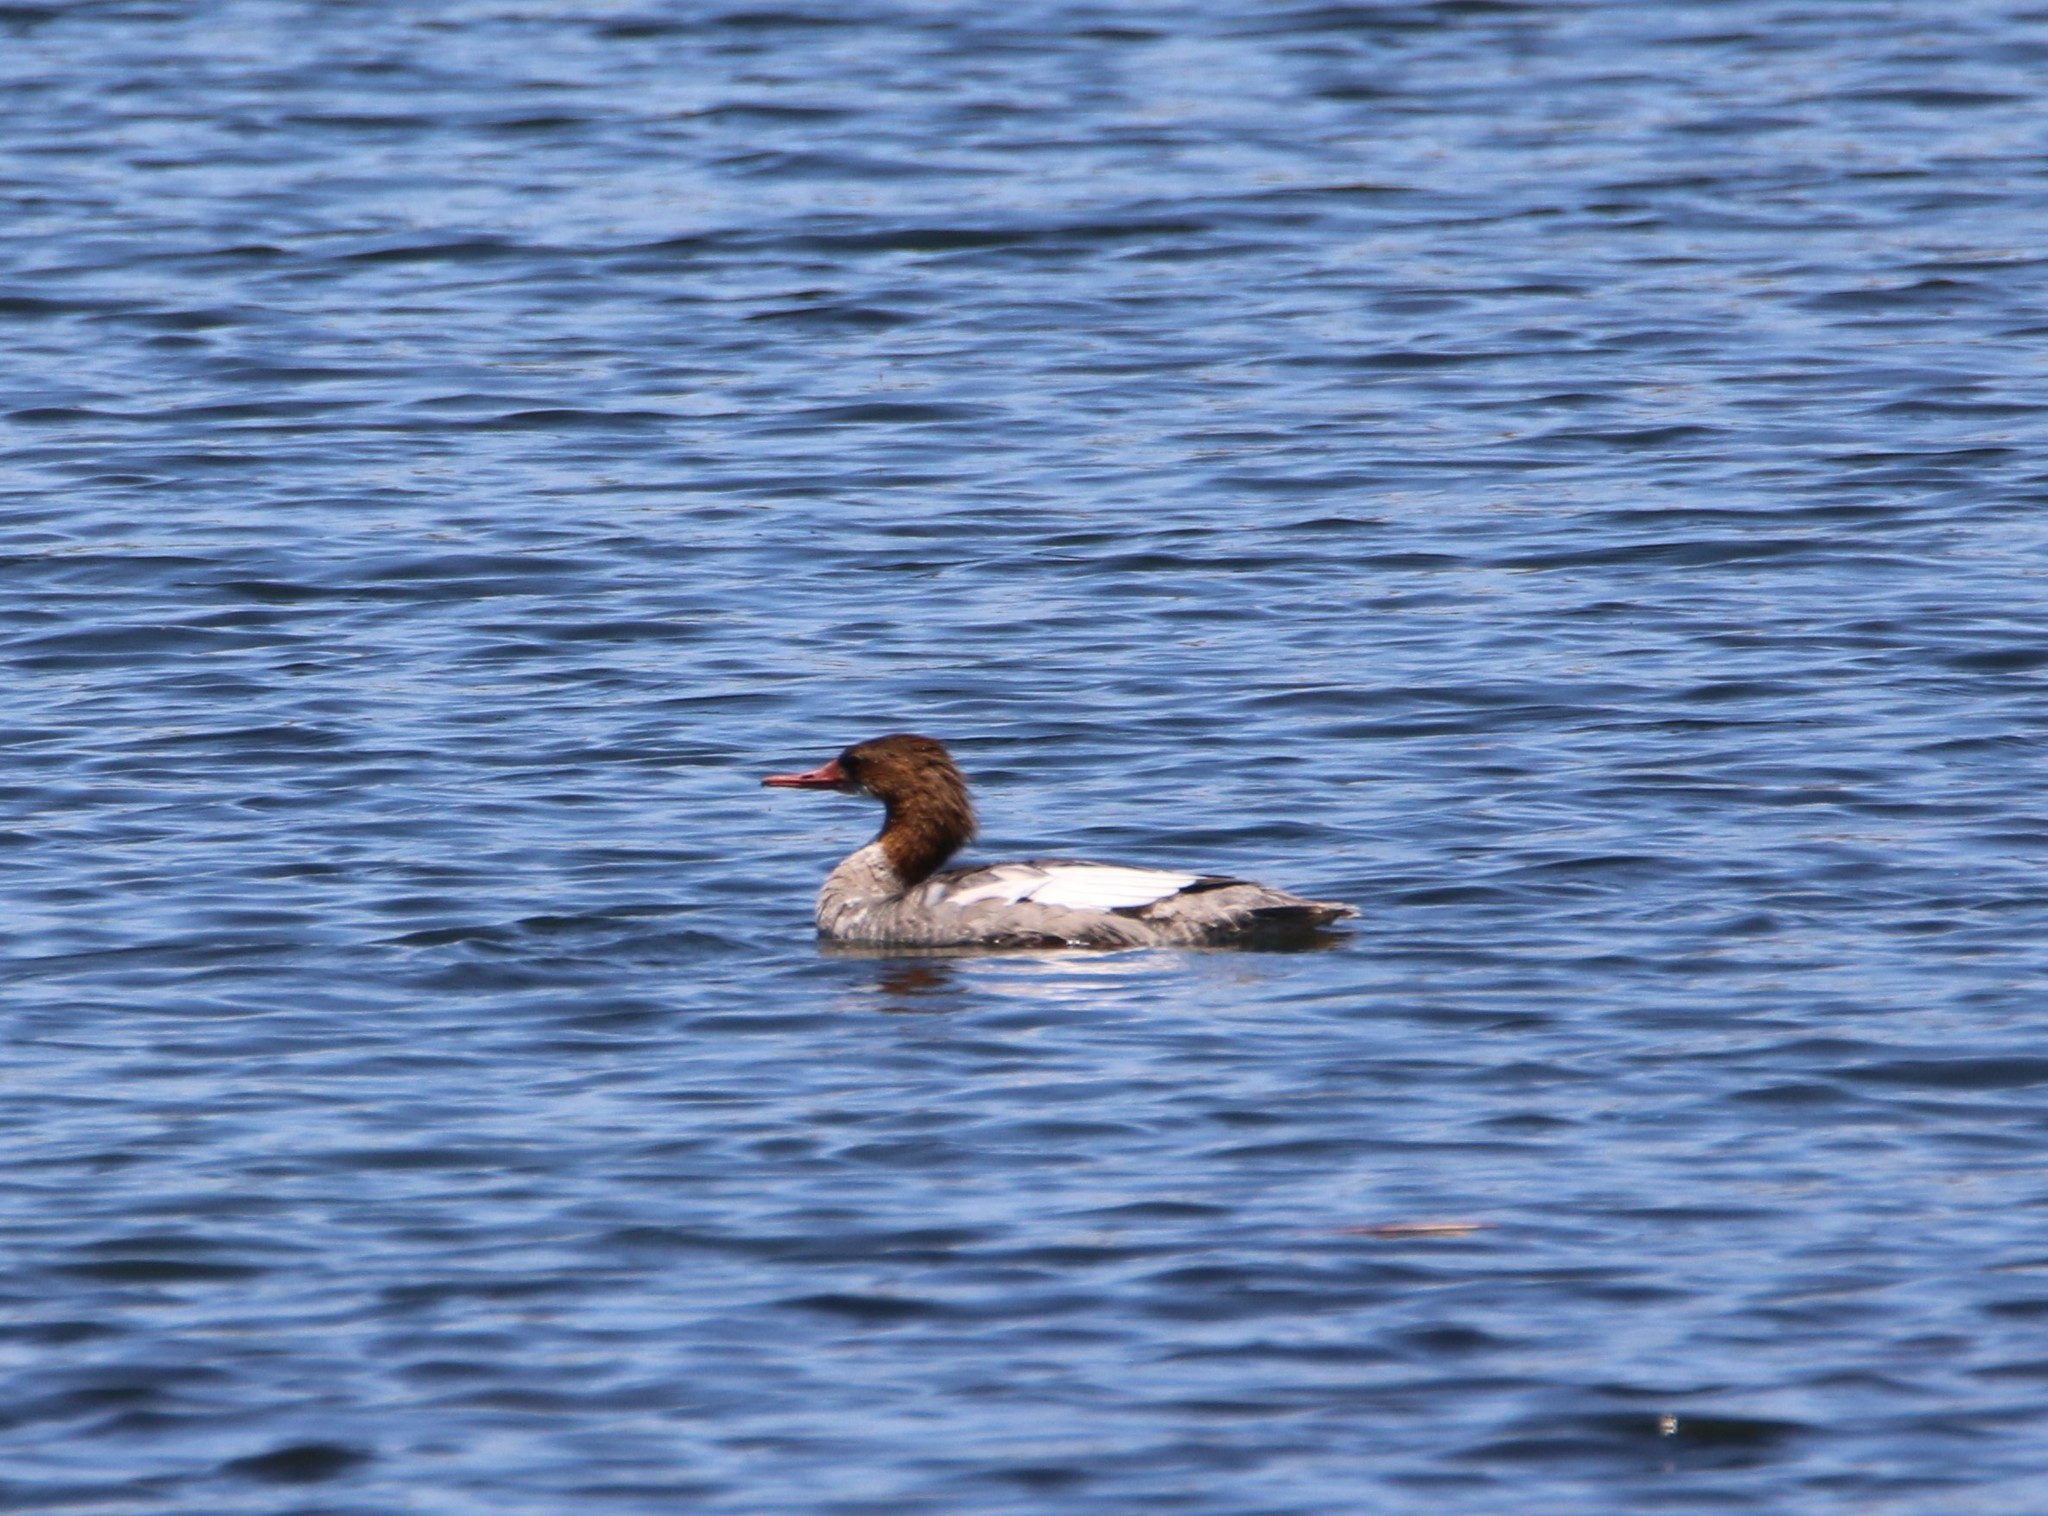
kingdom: Animalia
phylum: Chordata
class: Aves
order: Anseriformes
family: Anatidae
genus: Mergus
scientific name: Mergus merganser
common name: Common merganser
